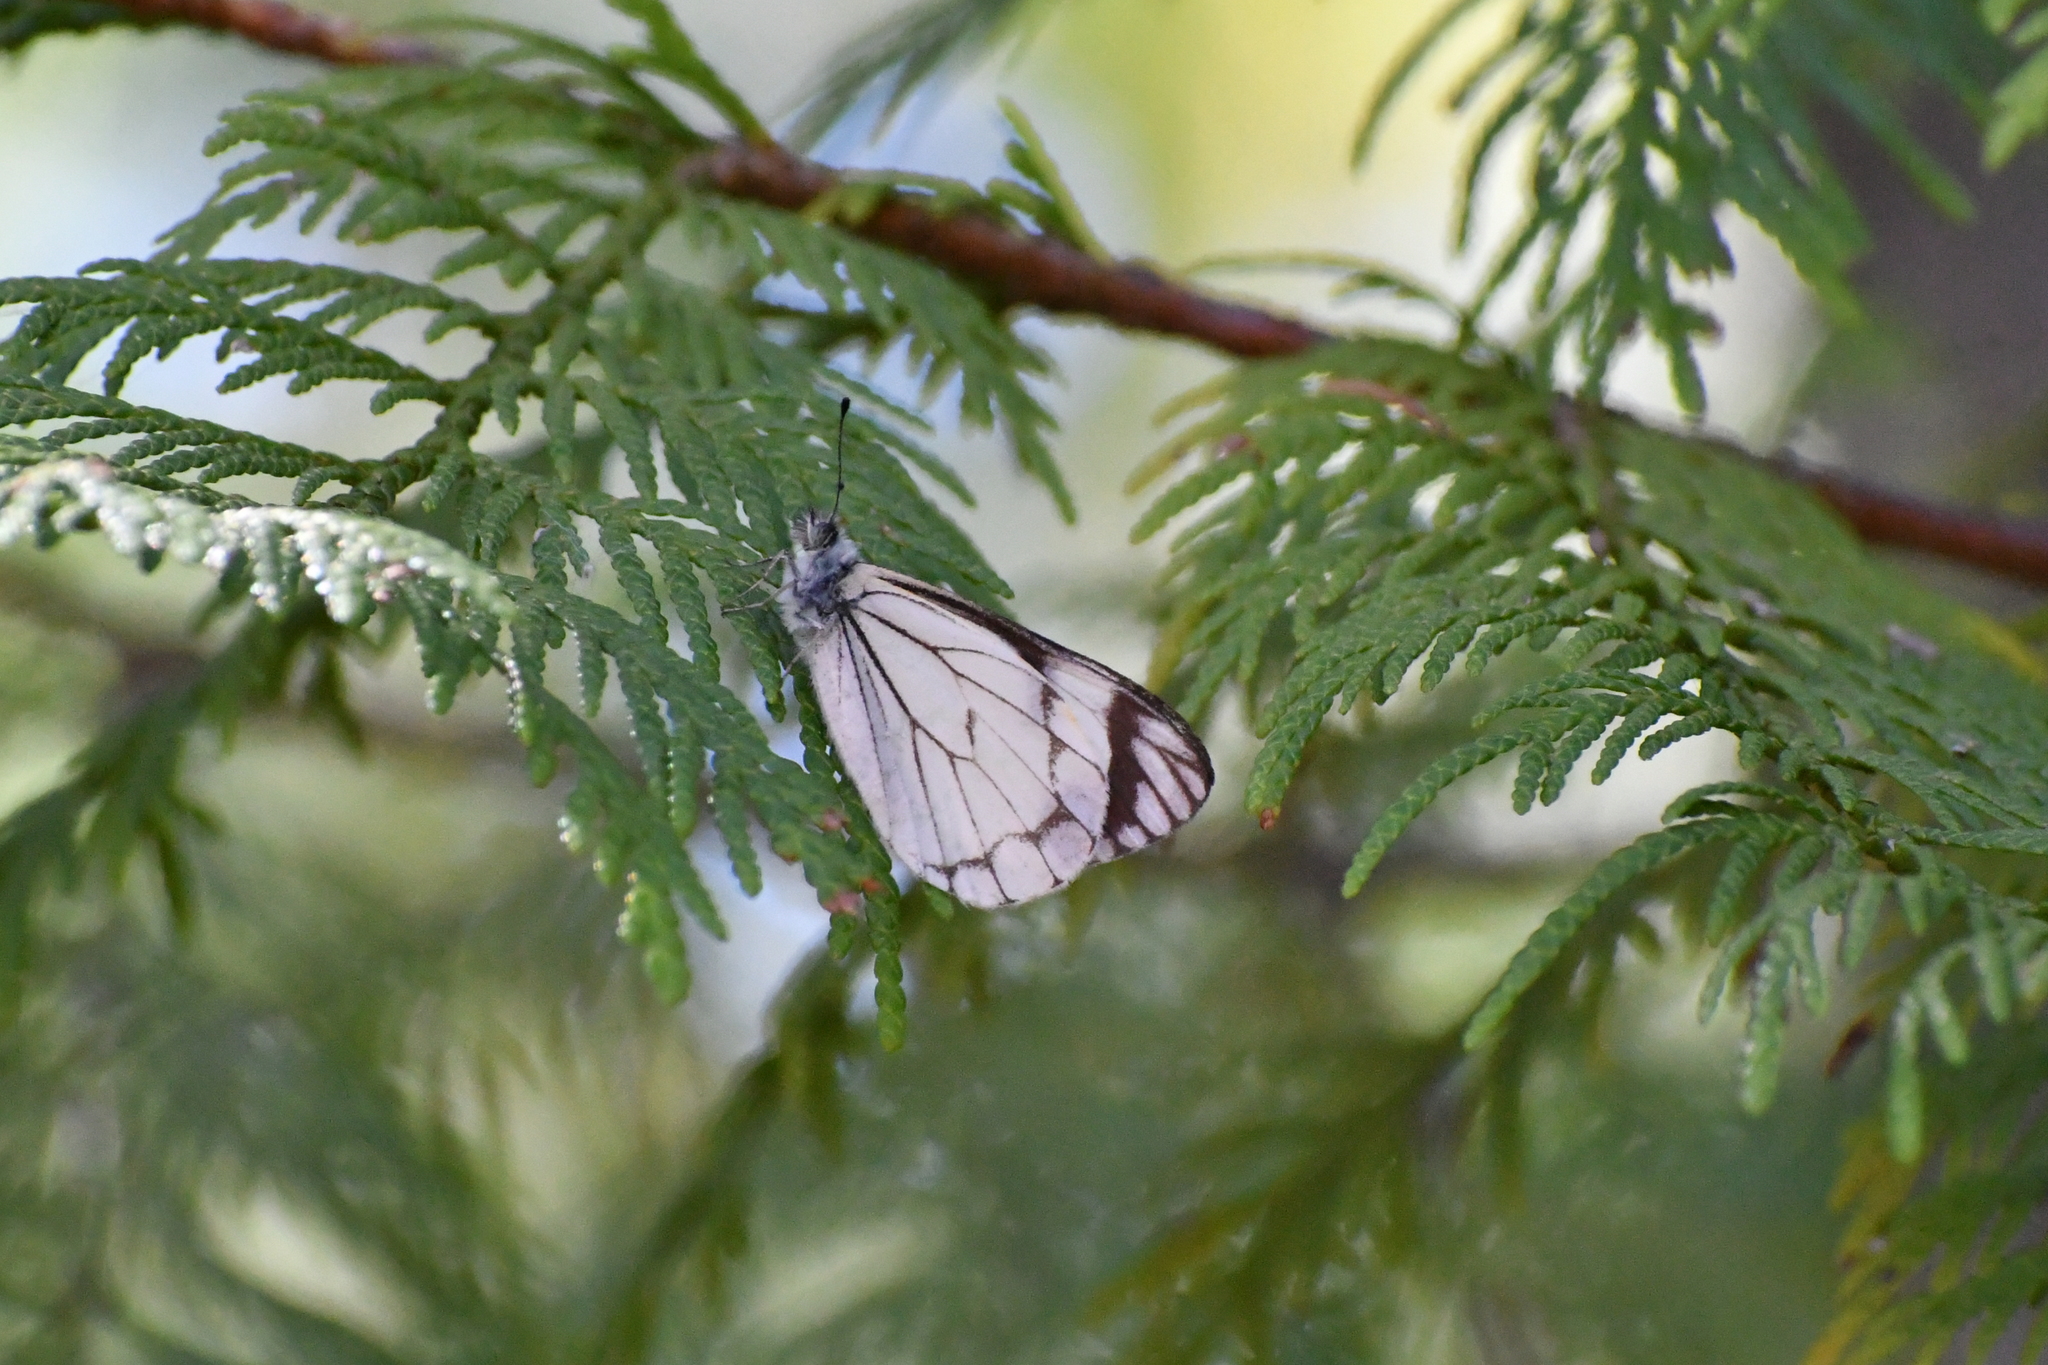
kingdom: Animalia
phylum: Arthropoda
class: Insecta
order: Lepidoptera
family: Pieridae
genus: Neophasia
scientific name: Neophasia menapia
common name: Pine white
